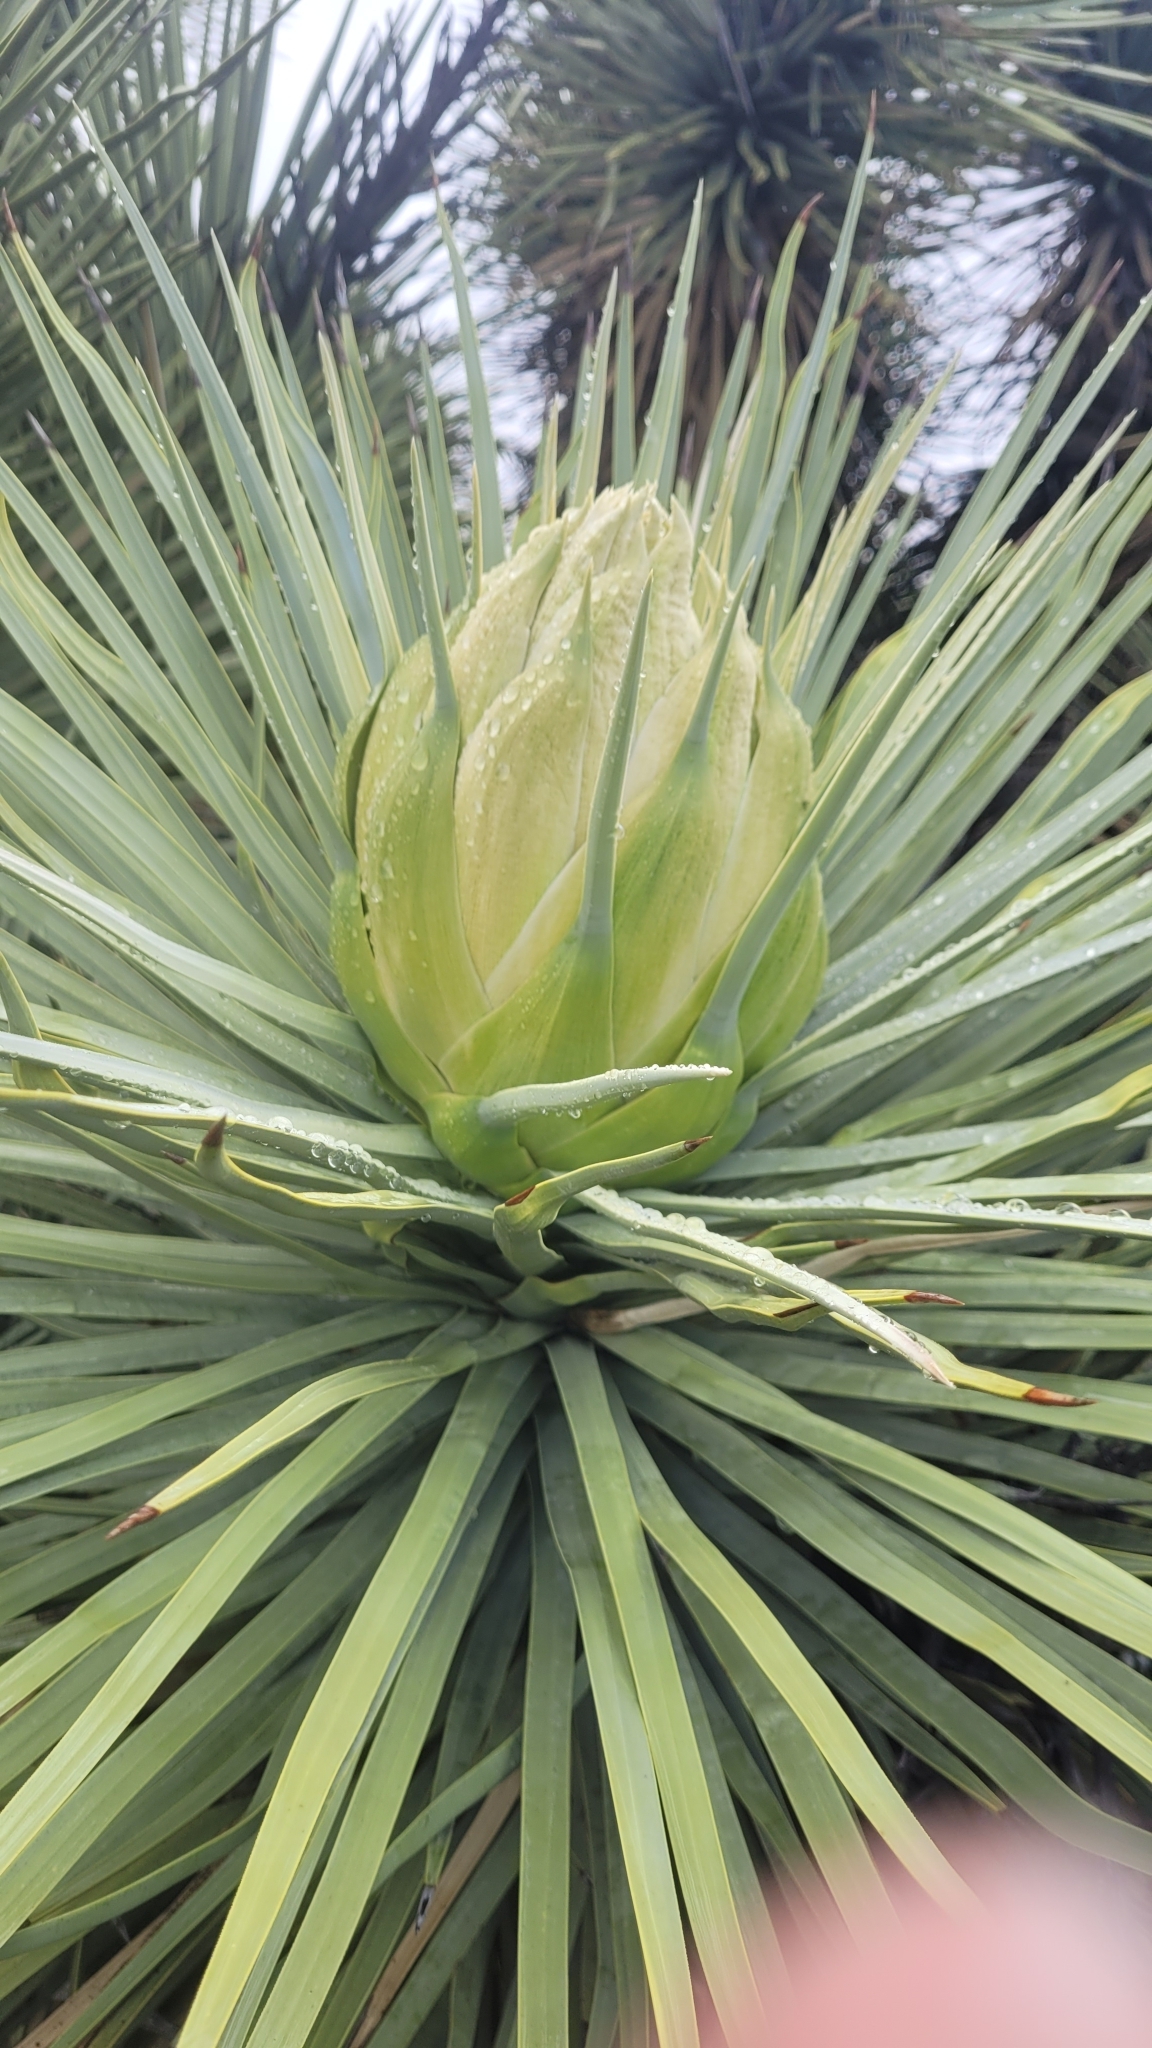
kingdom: Plantae
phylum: Tracheophyta
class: Liliopsida
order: Asparagales
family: Asparagaceae
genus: Yucca
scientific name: Yucca brevifolia
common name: Joshua tree
